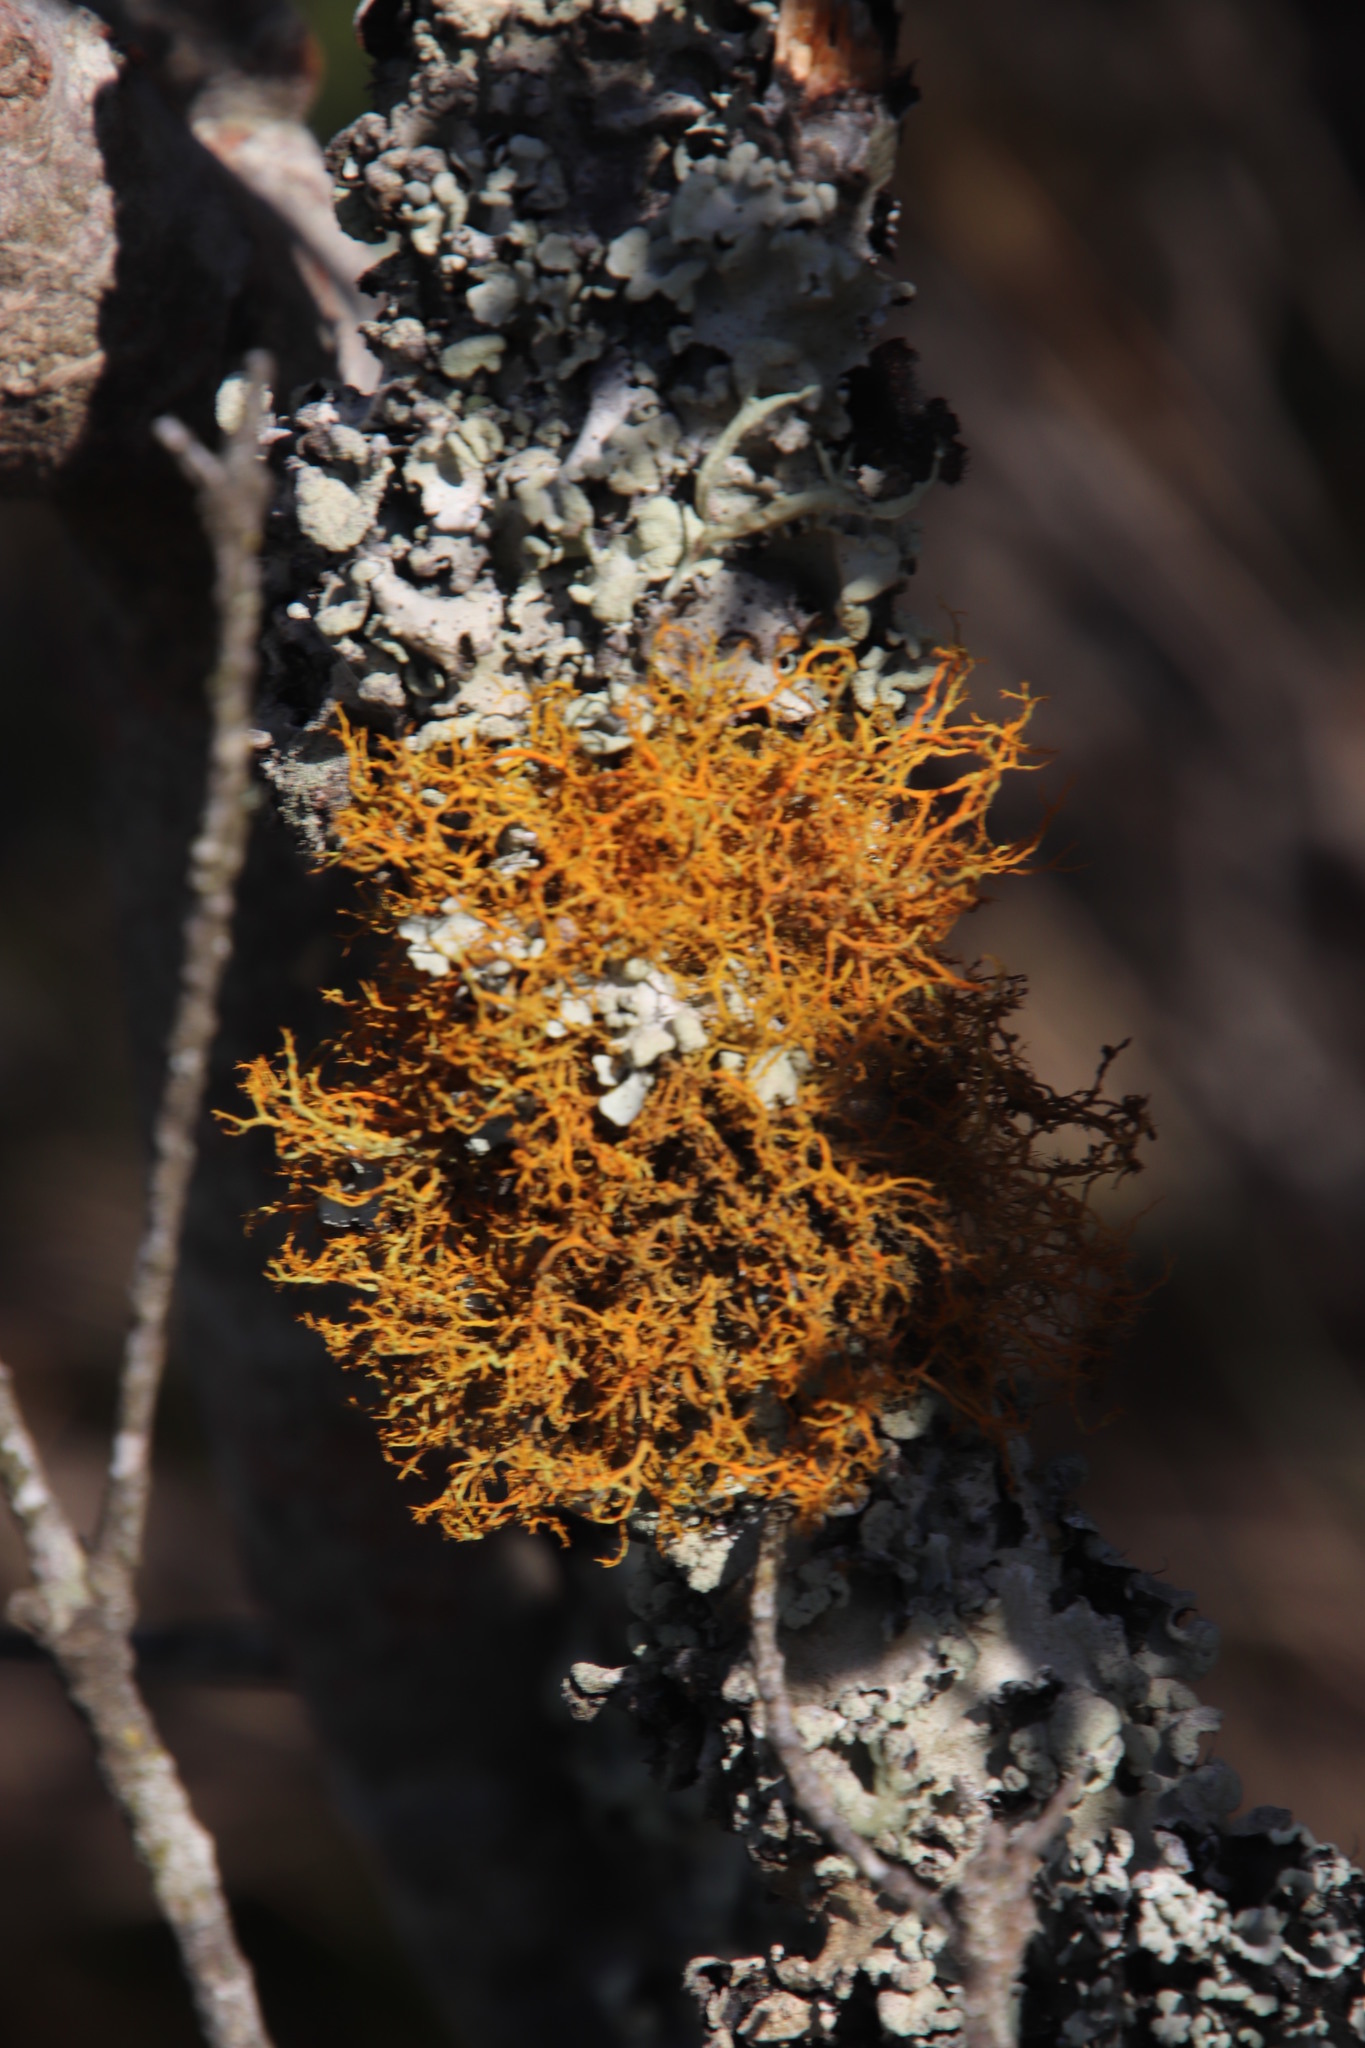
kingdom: Fungi
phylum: Ascomycota
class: Lecanoromycetes
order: Teloschistales
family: Teloschistaceae
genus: Teloschistes
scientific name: Teloschistes flavicans
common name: Golden hair-lichen
